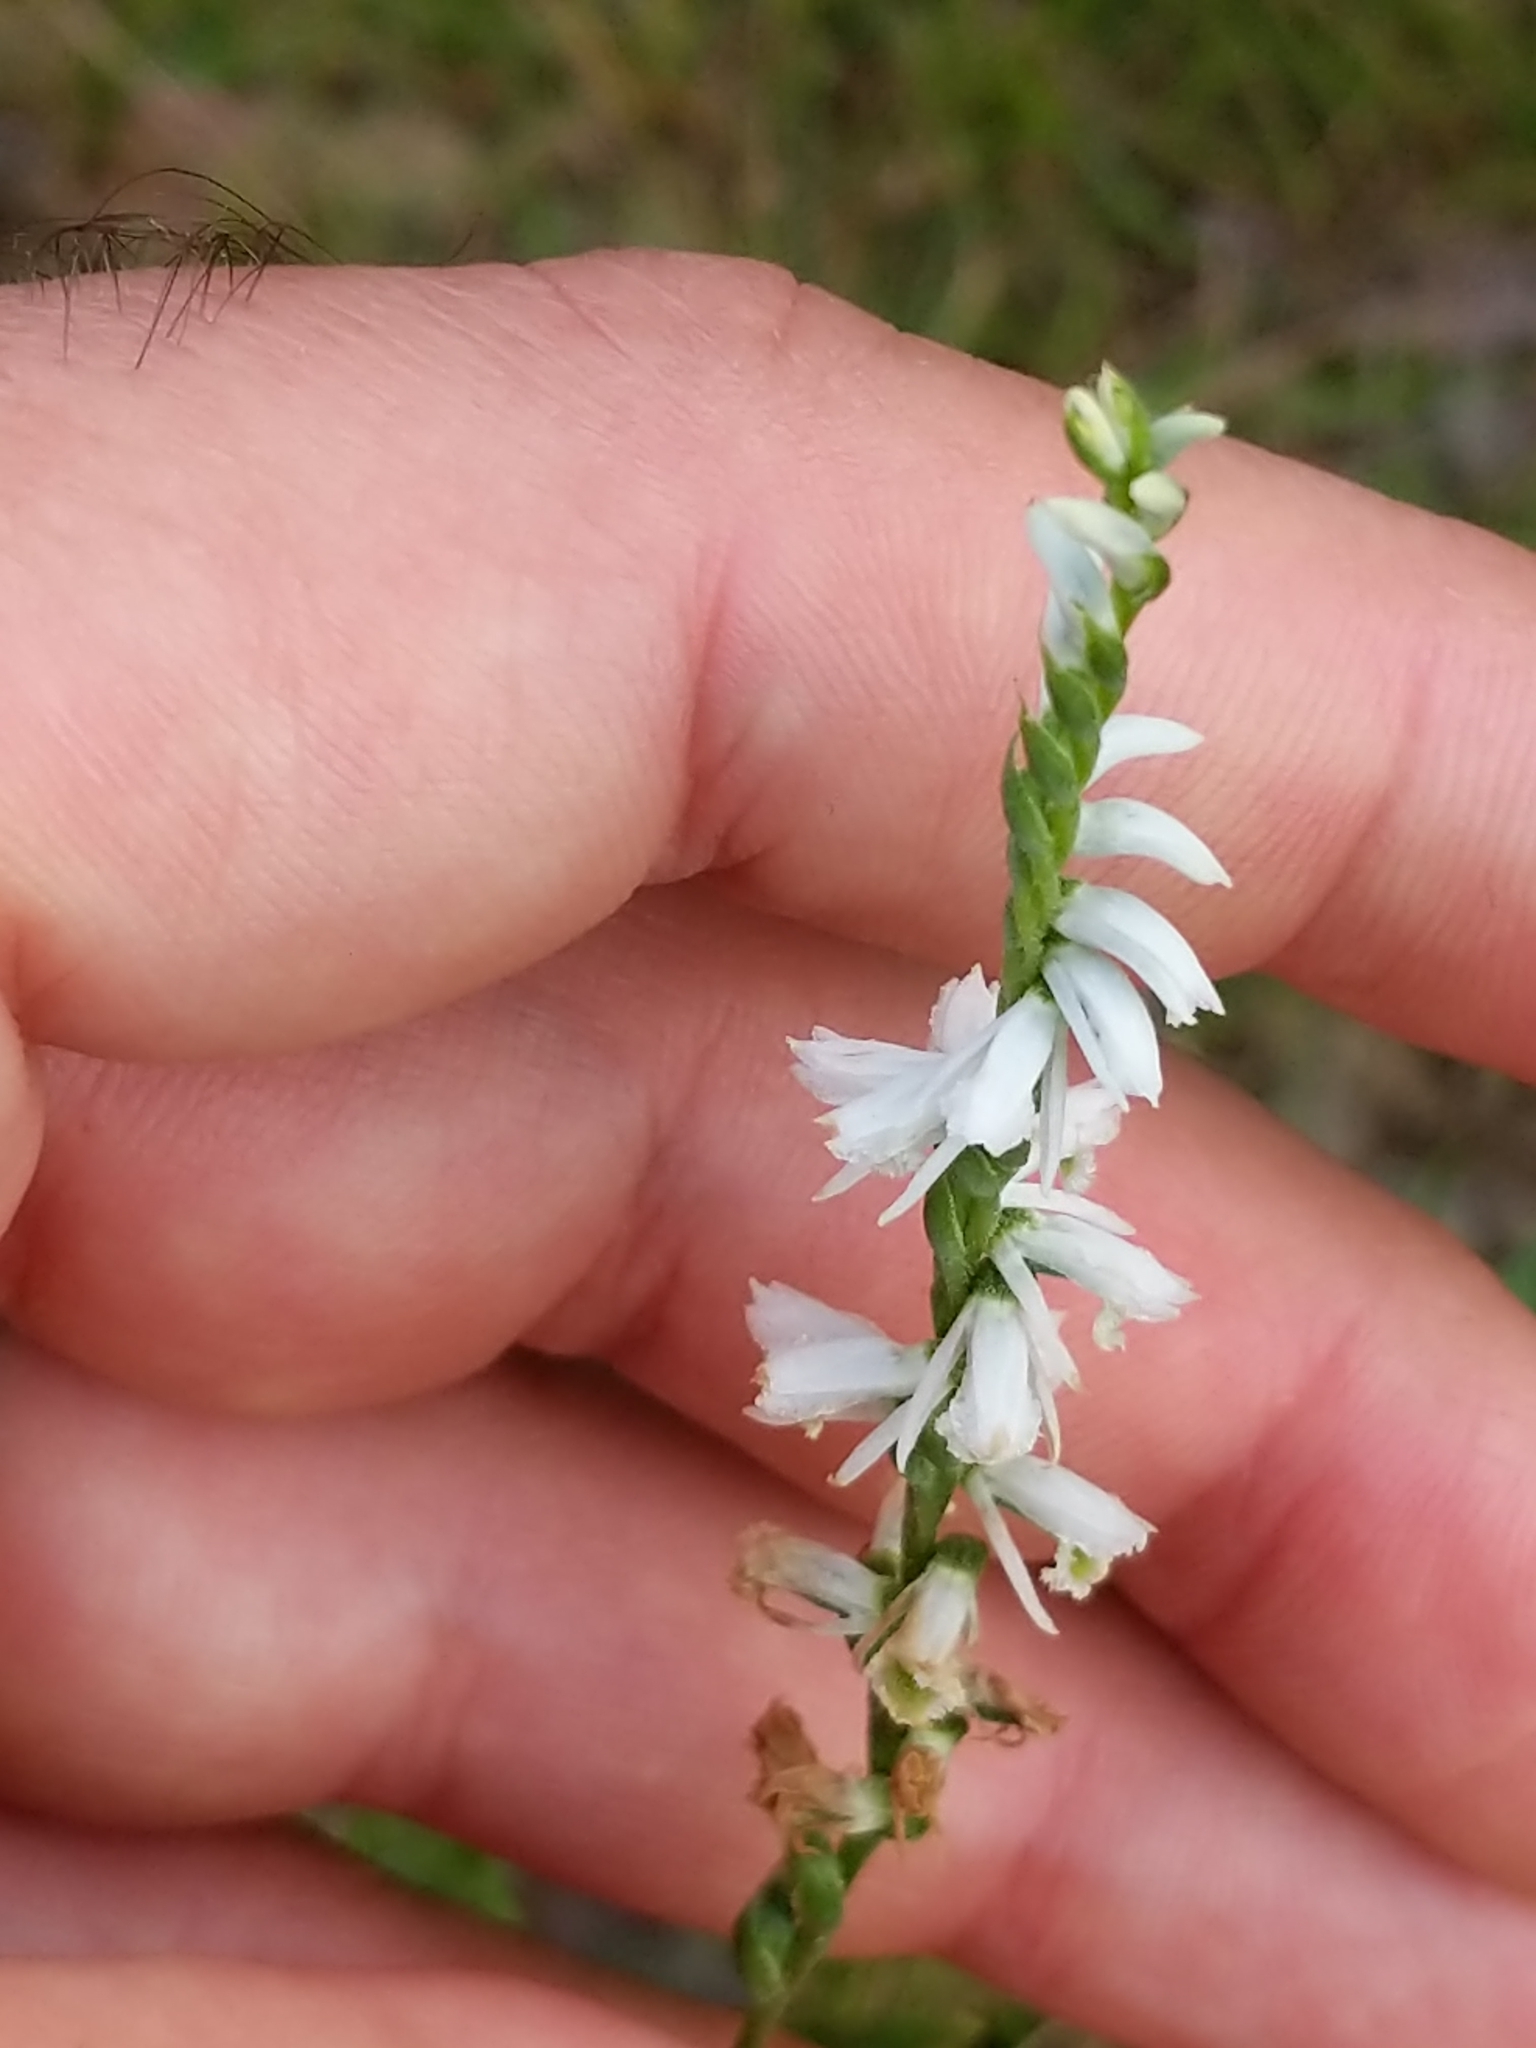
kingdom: Plantae
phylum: Tracheophyta
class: Liliopsida
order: Asparagales
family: Orchidaceae
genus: Spiranthes
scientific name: Spiranthes lacera
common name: Northern slender ladies'-tresses
